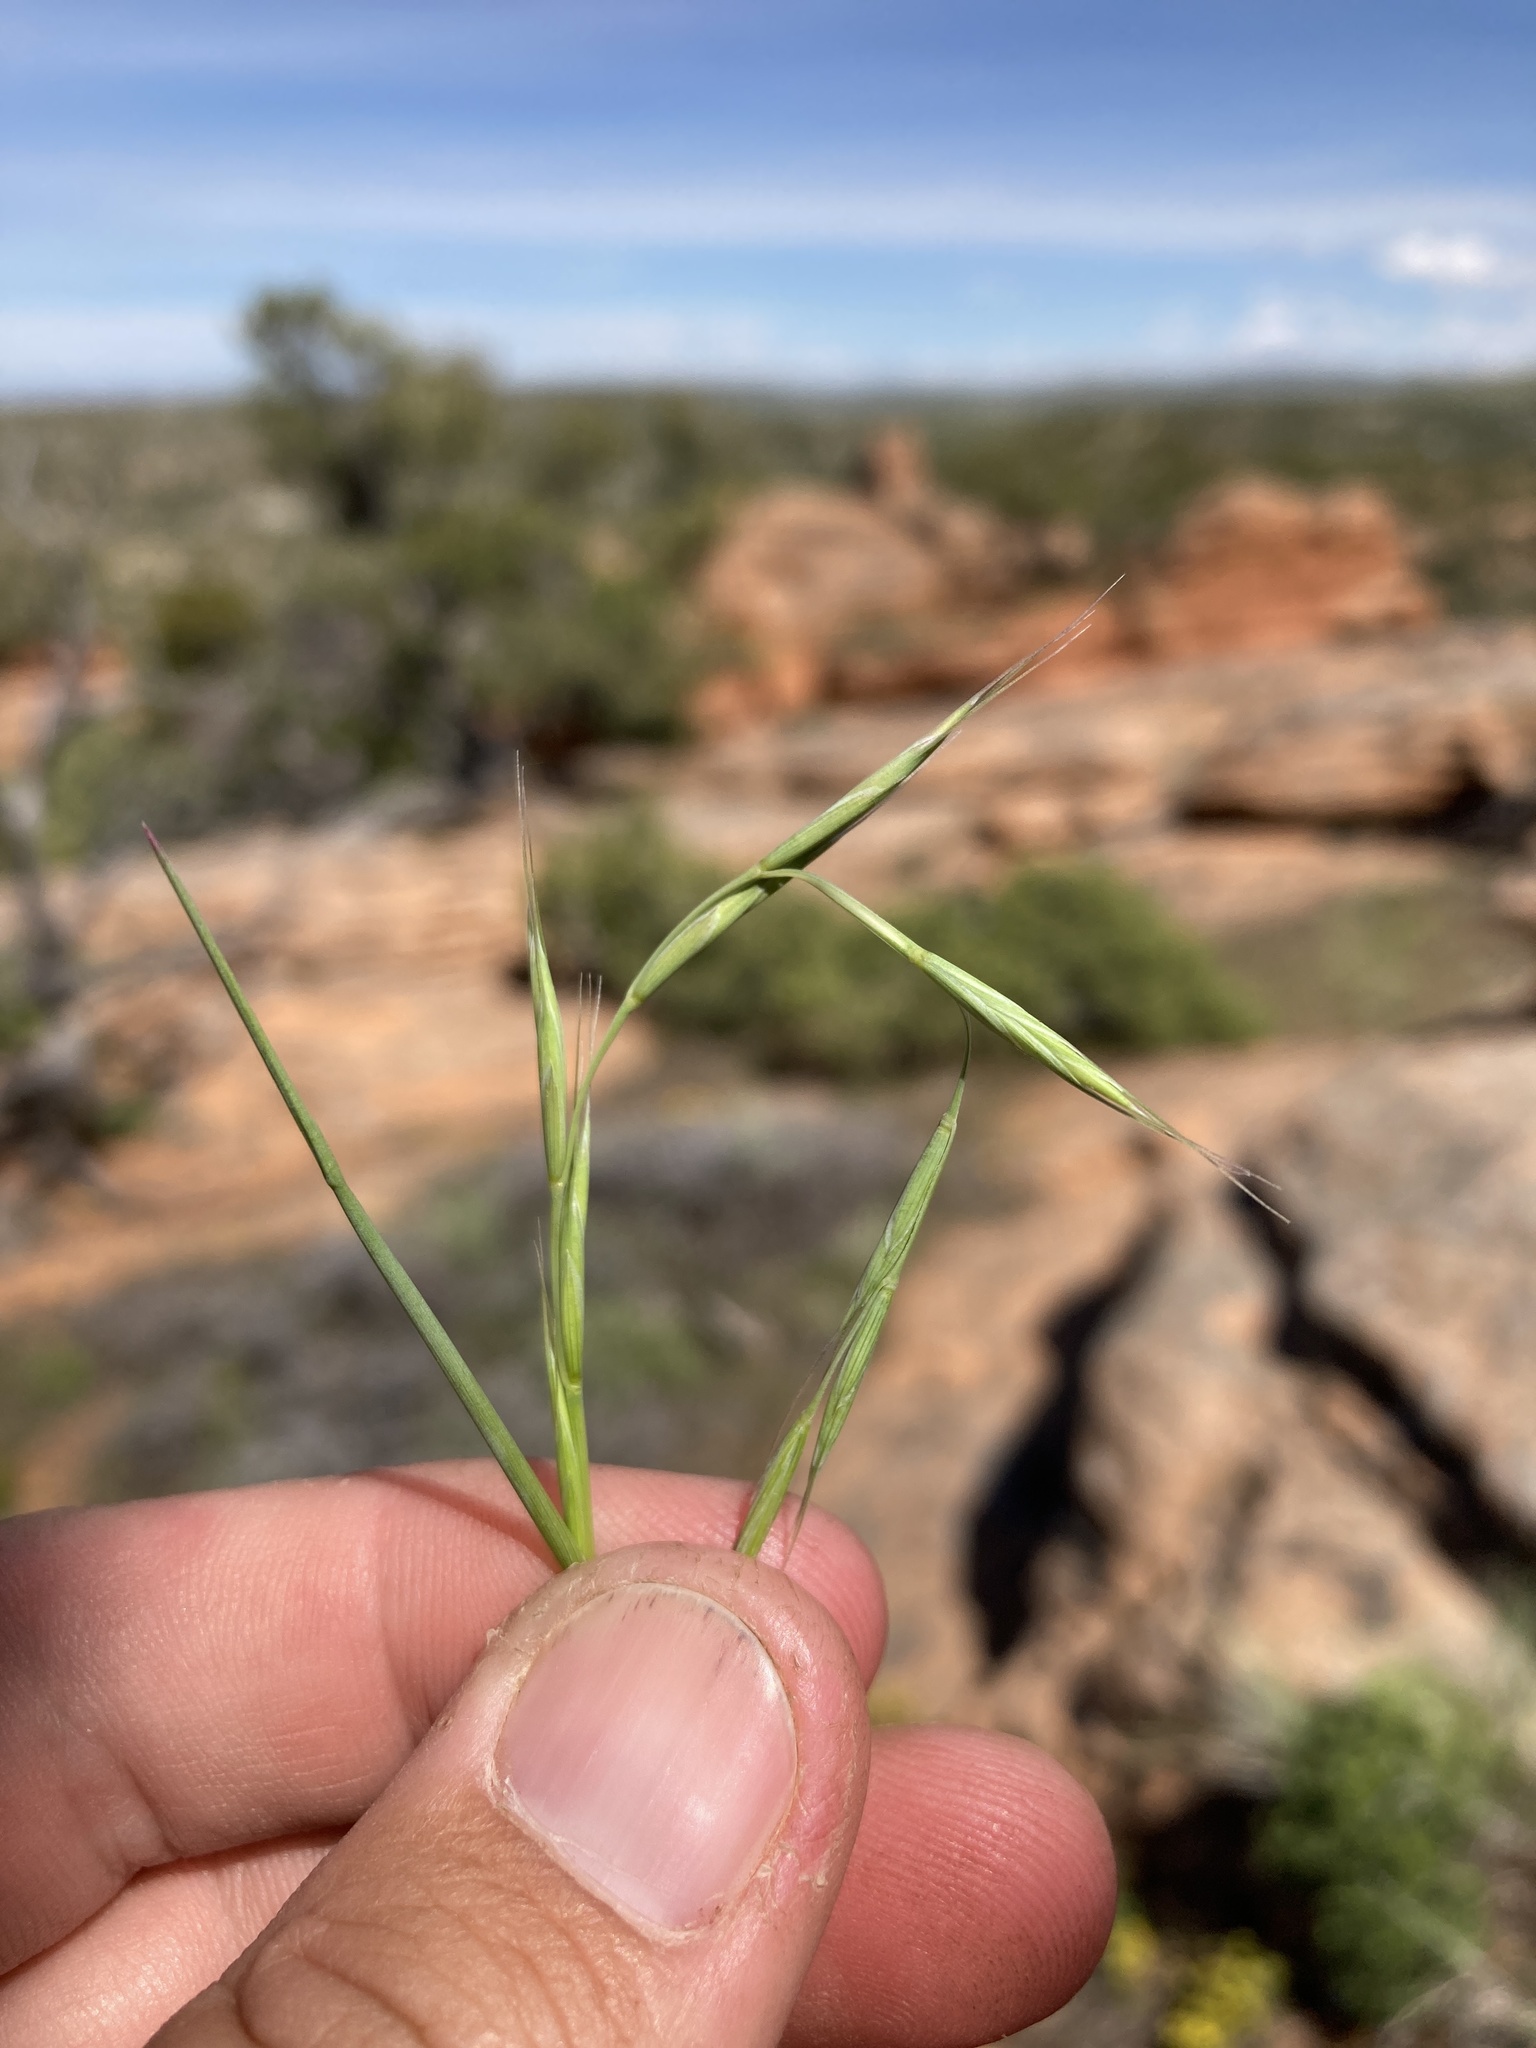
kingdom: Plantae
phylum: Tracheophyta
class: Liliopsida
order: Poales
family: Poaceae
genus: Pseudoroegneria
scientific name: Pseudoroegneria spicata
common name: Bluebunch wheatgrass
